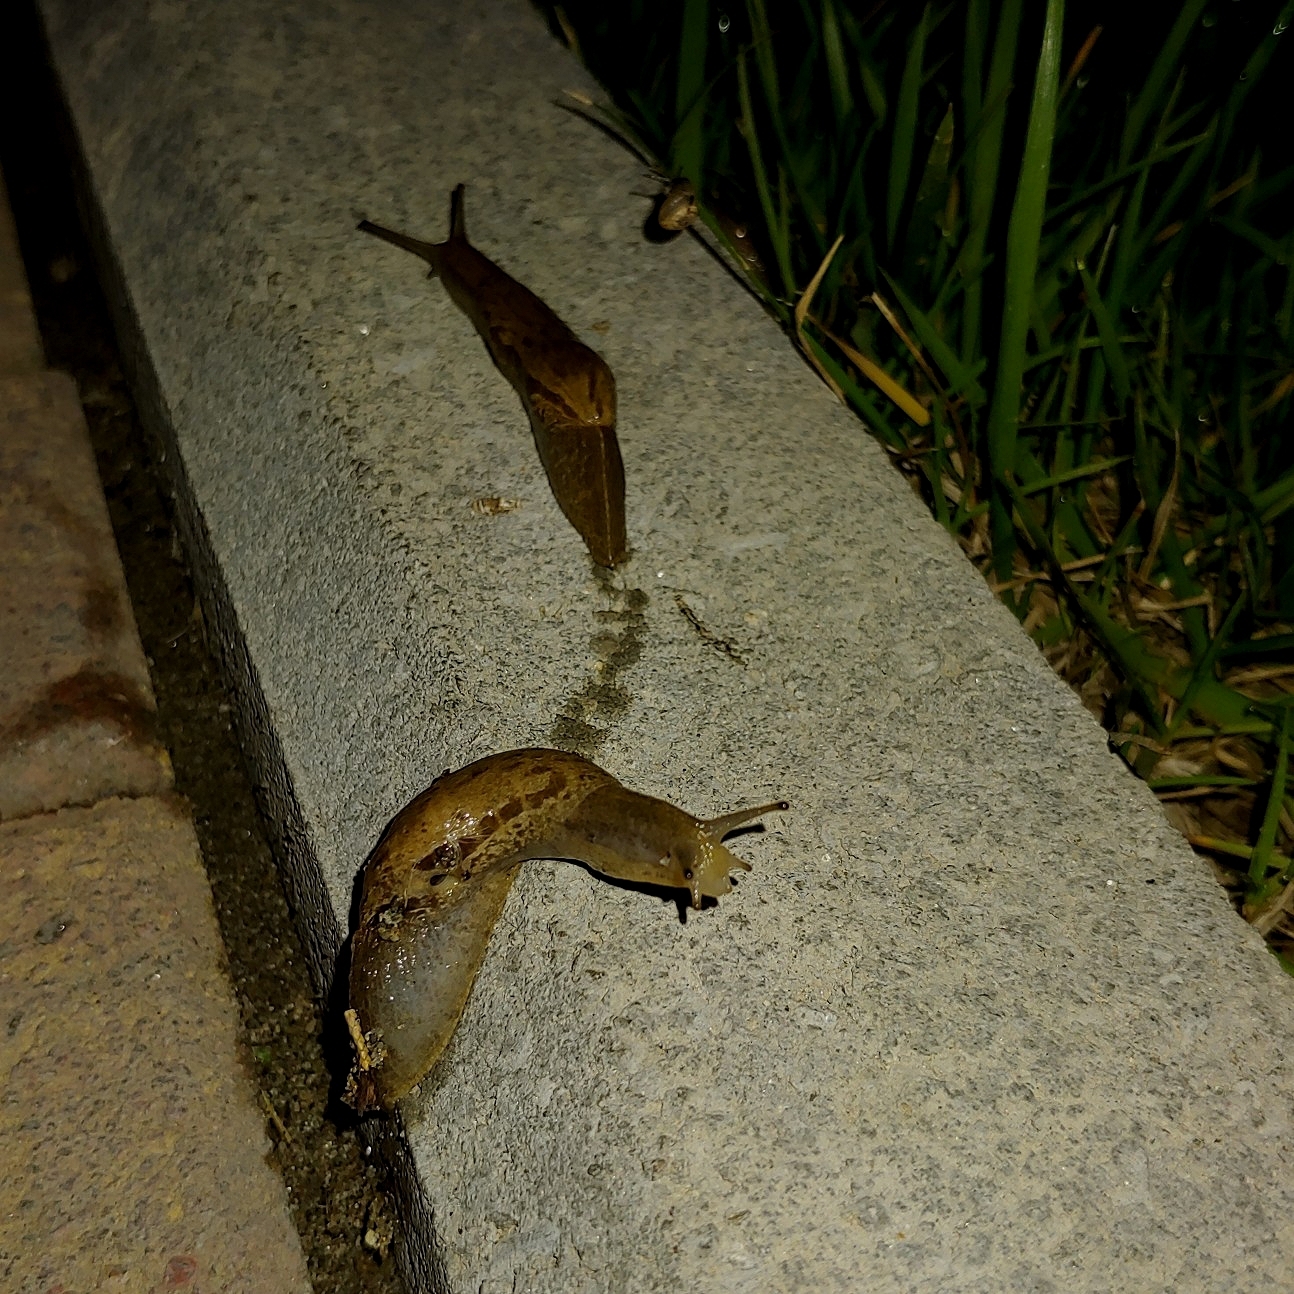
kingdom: Animalia
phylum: Mollusca
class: Gastropoda
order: Stylommatophora
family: Parmacellidae
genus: Drusia
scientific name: Drusia ibera
